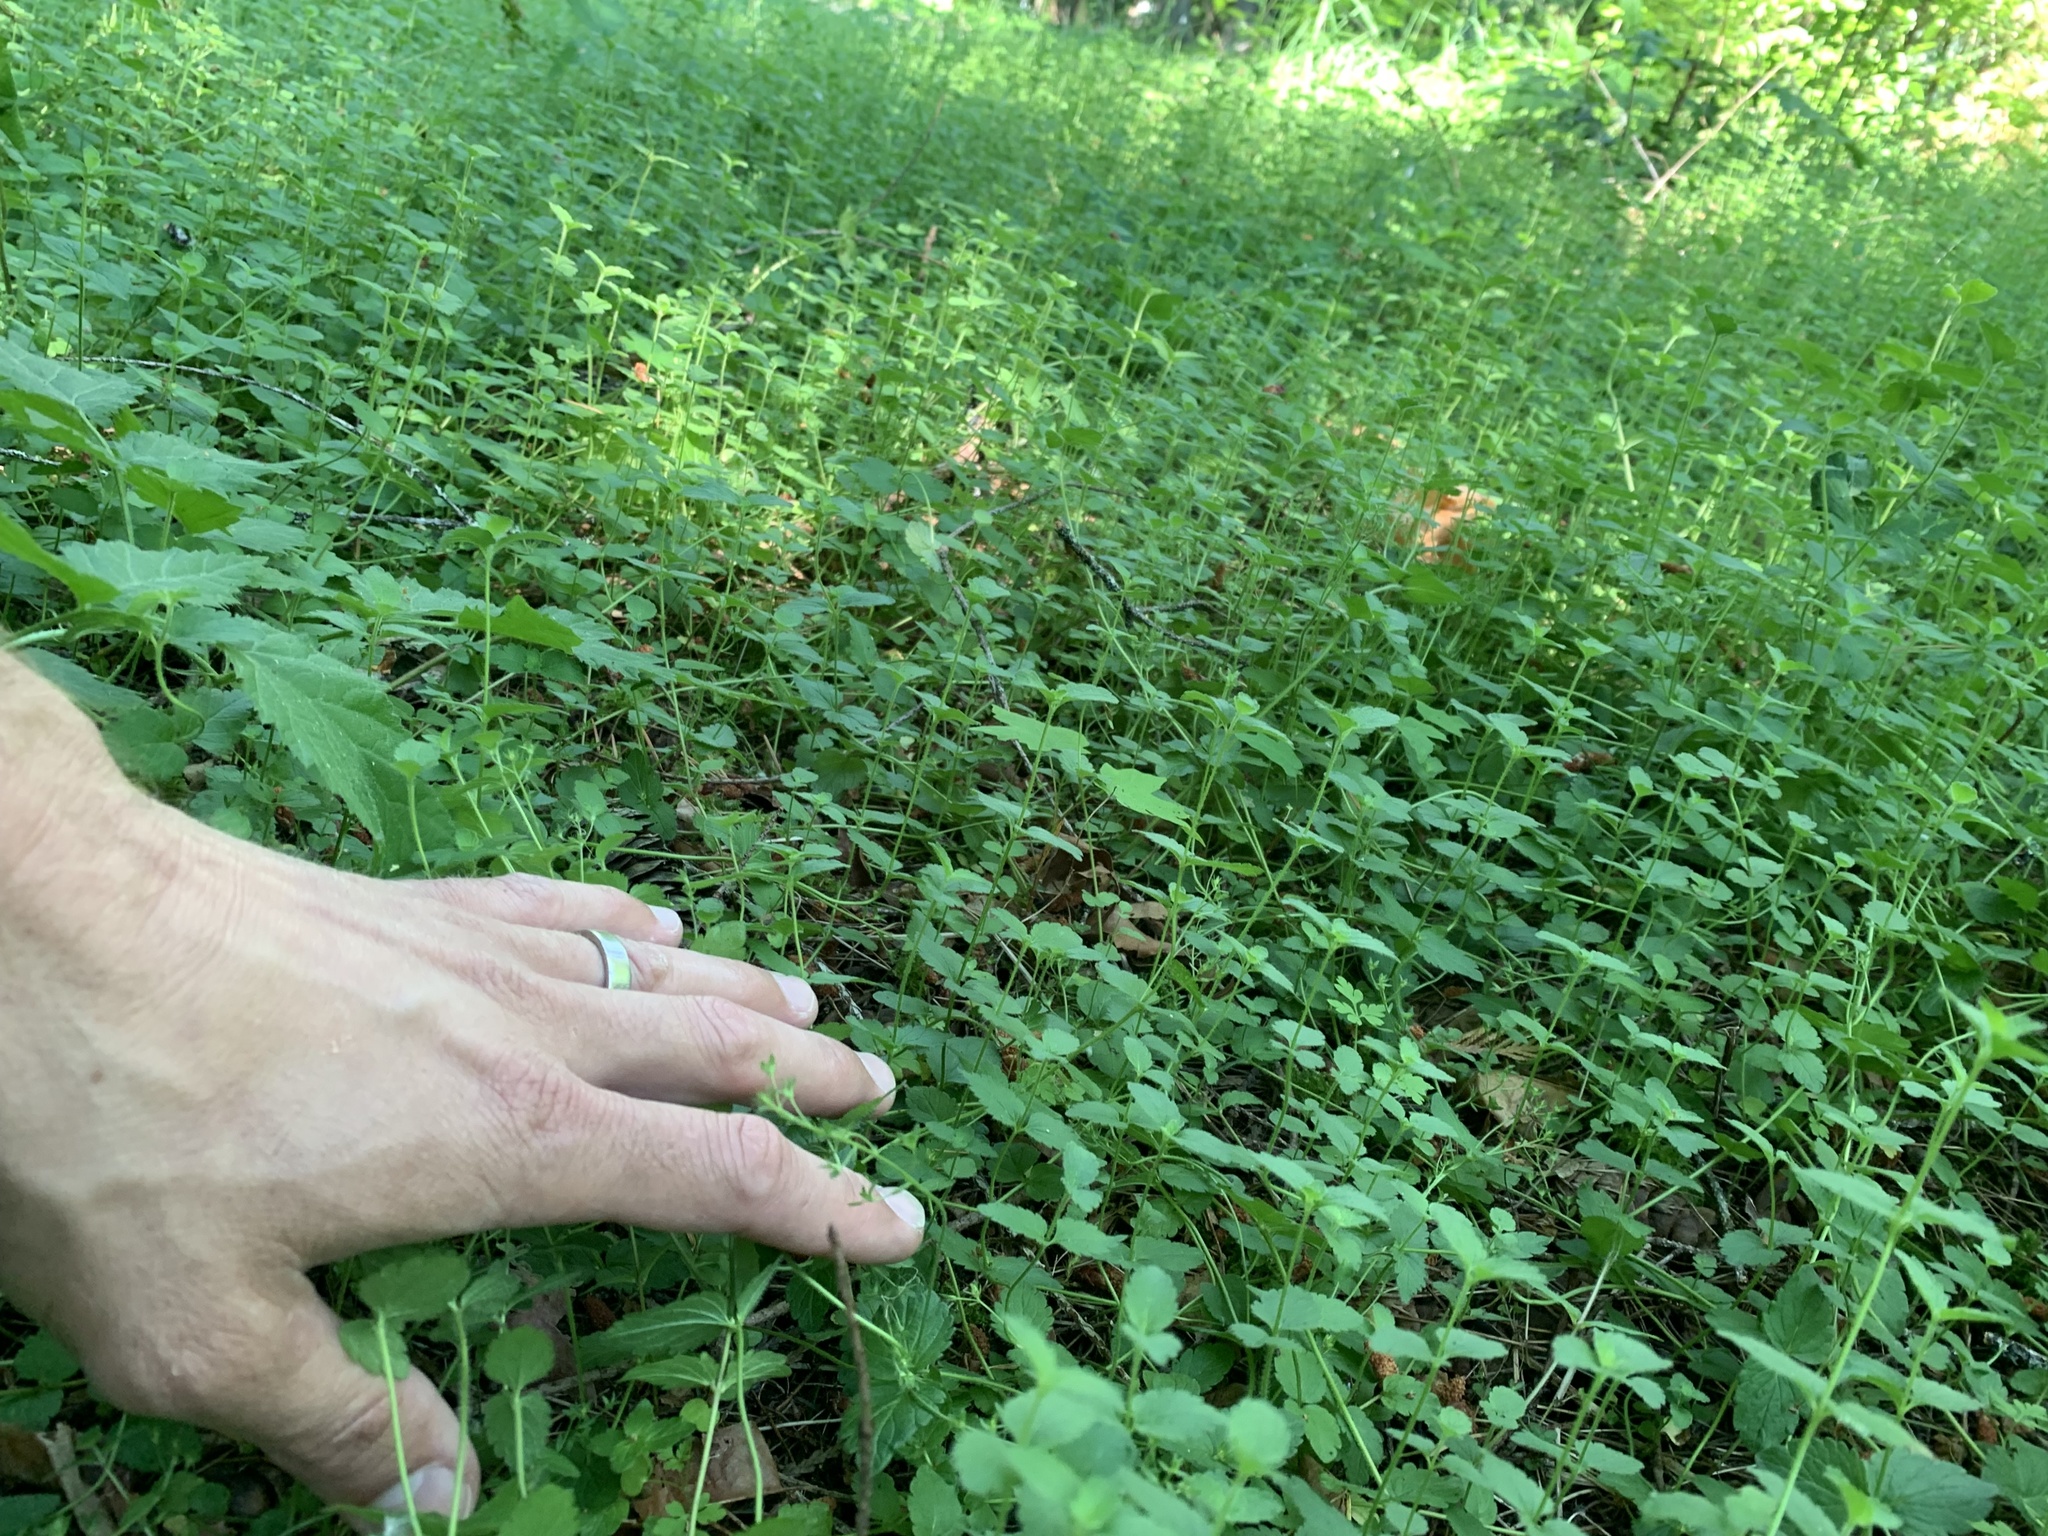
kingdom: Plantae
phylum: Tracheophyta
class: Magnoliopsida
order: Lamiales
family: Plantaginaceae
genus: Veronica
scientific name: Veronica chamaedrys
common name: Germander speedwell
